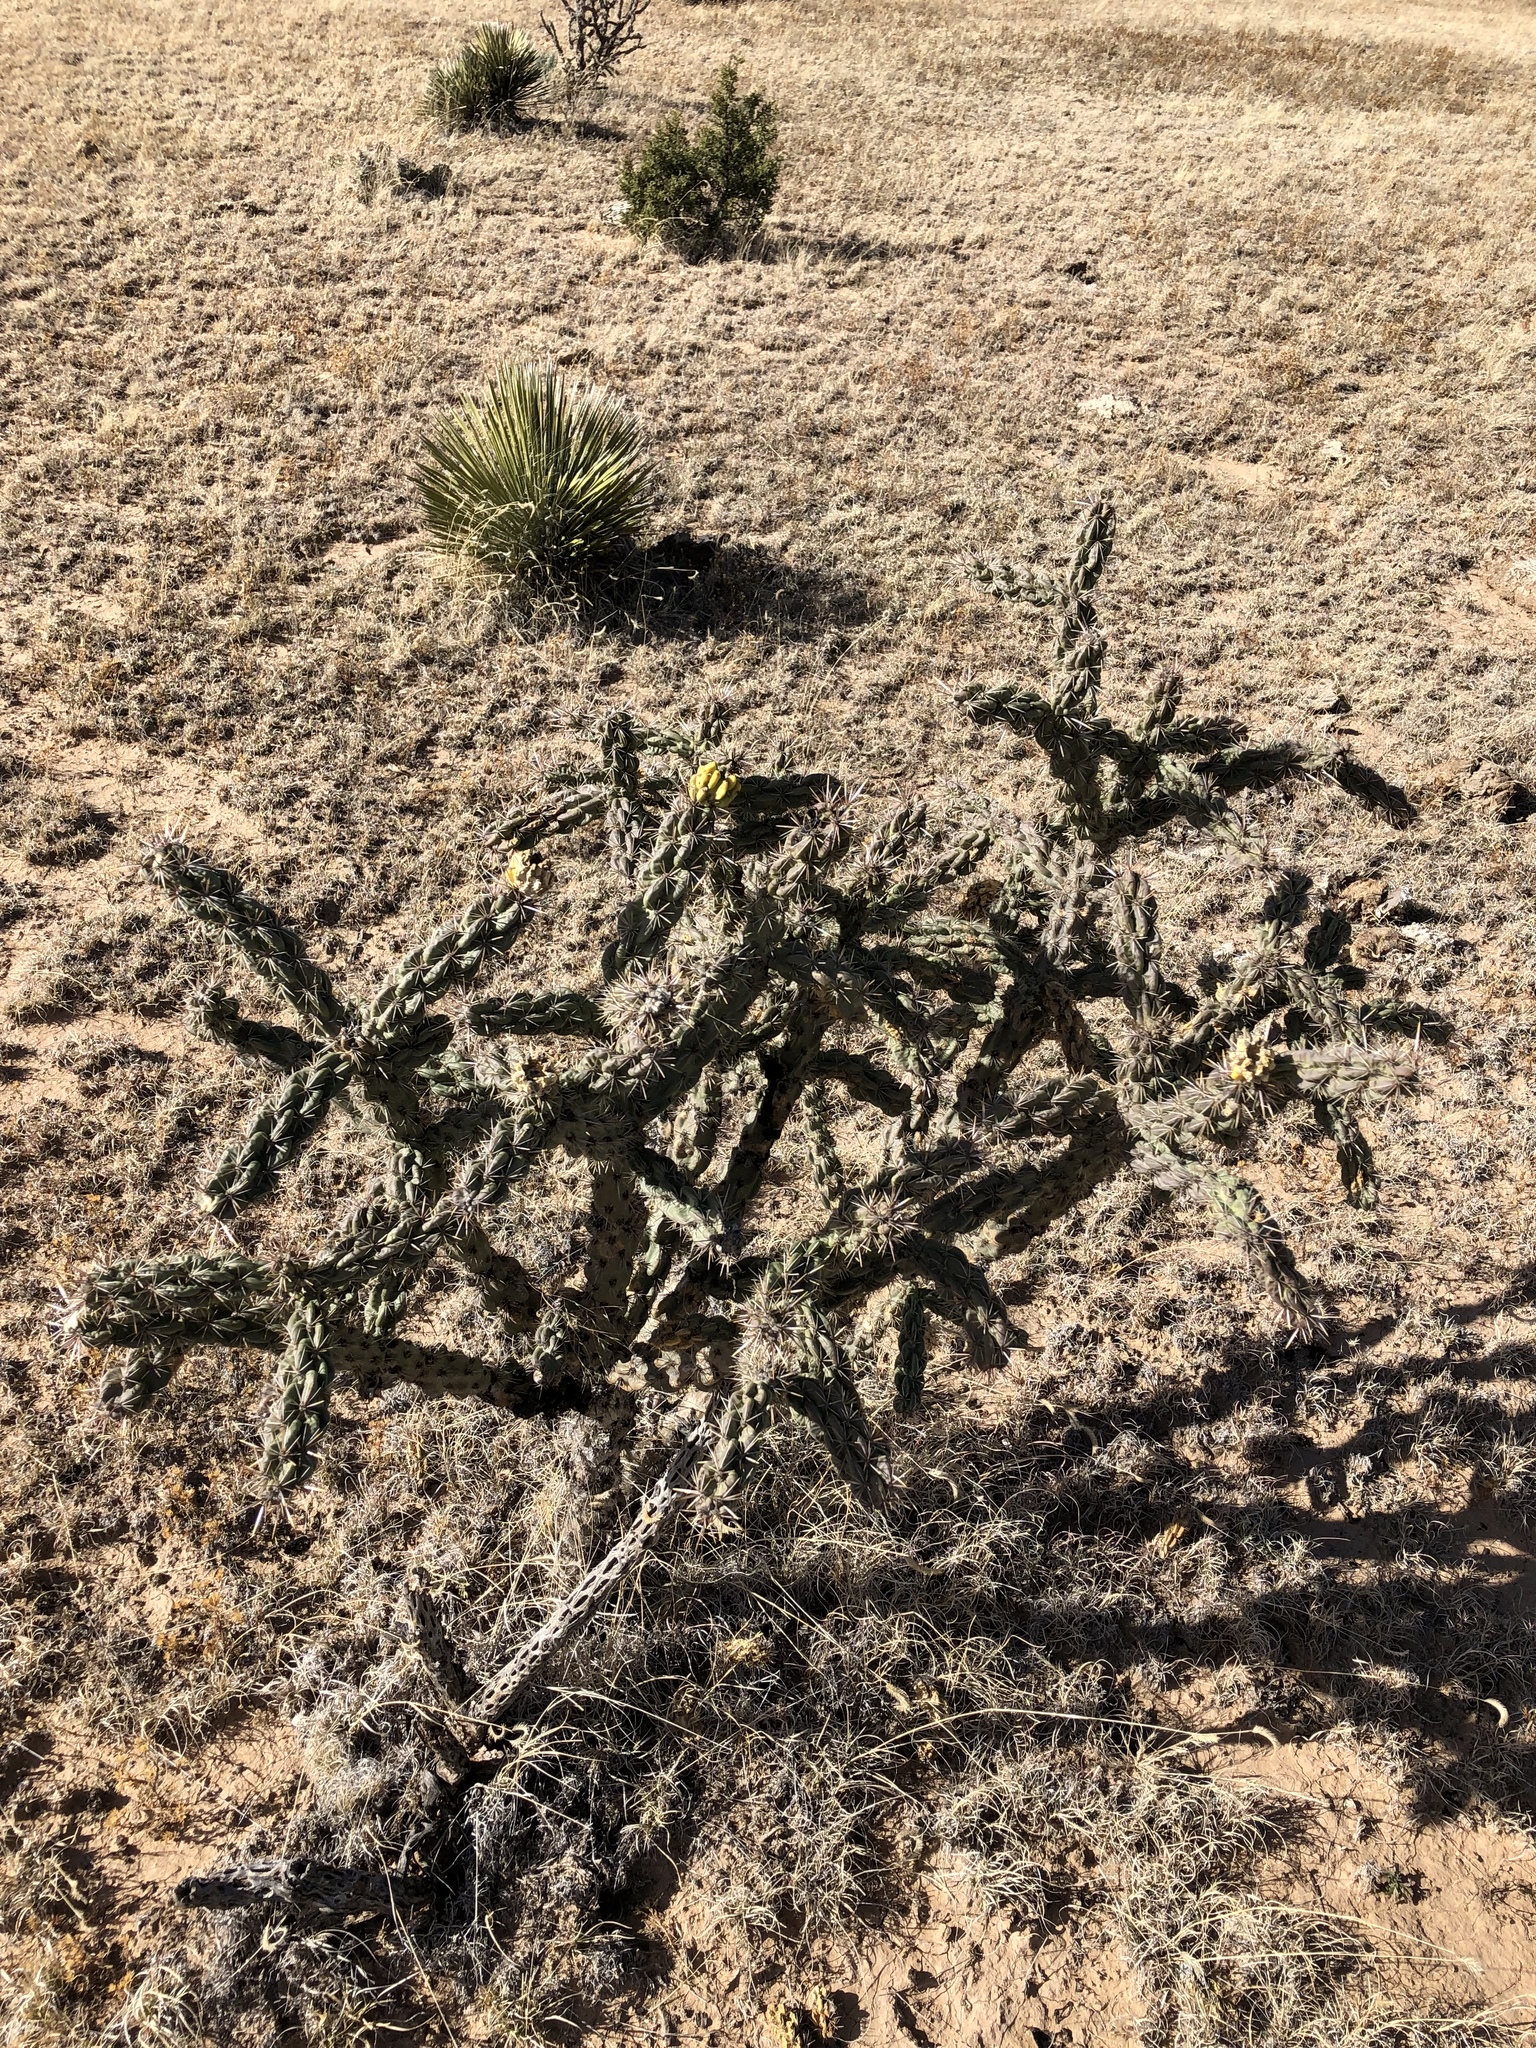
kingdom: Plantae
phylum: Tracheophyta
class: Magnoliopsida
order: Caryophyllales
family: Cactaceae
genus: Cylindropuntia
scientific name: Cylindropuntia imbricata
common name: Candelabrum cactus
